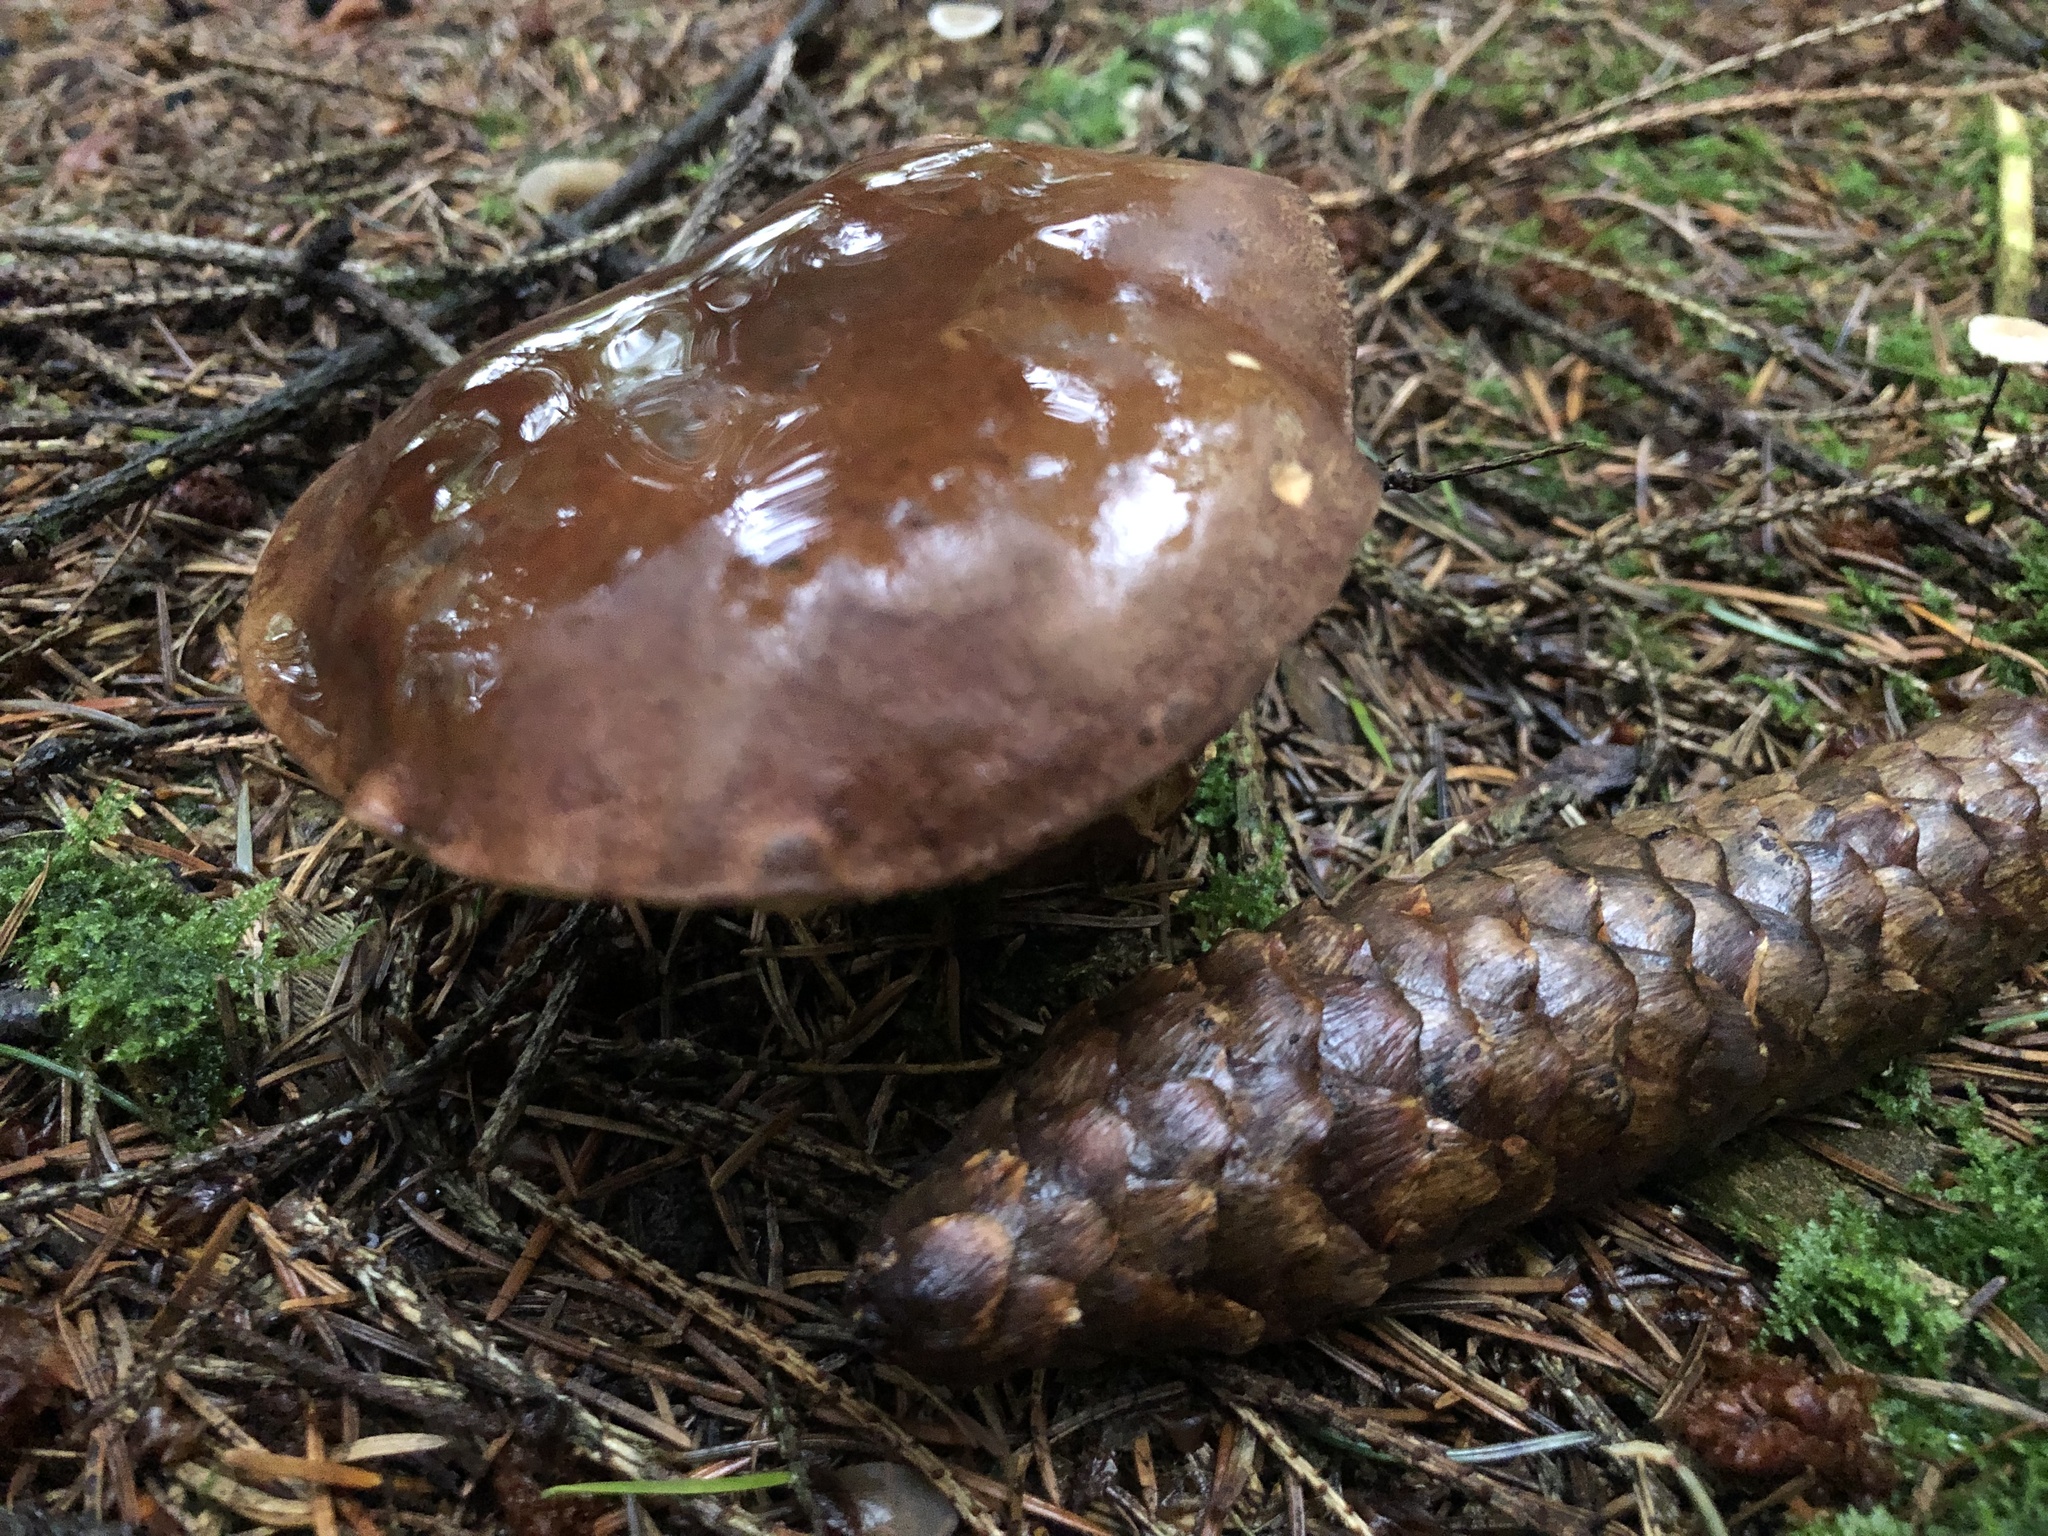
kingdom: Fungi
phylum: Basidiomycota
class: Agaricomycetes
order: Boletales
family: Boletaceae
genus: Imleria
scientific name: Imleria badia
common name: Bay bolete
